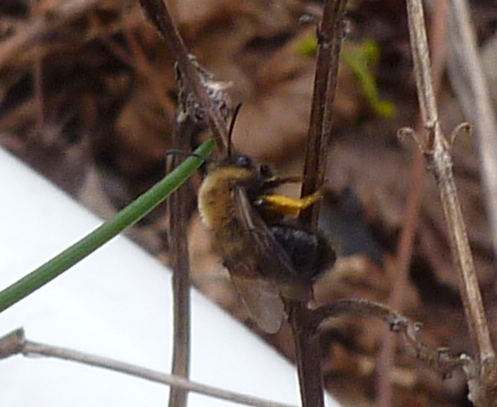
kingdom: Animalia
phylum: Arthropoda
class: Insecta
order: Hymenoptera
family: Andrenidae
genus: Andrena
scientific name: Andrena clarkella
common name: Clarke's mining bee
